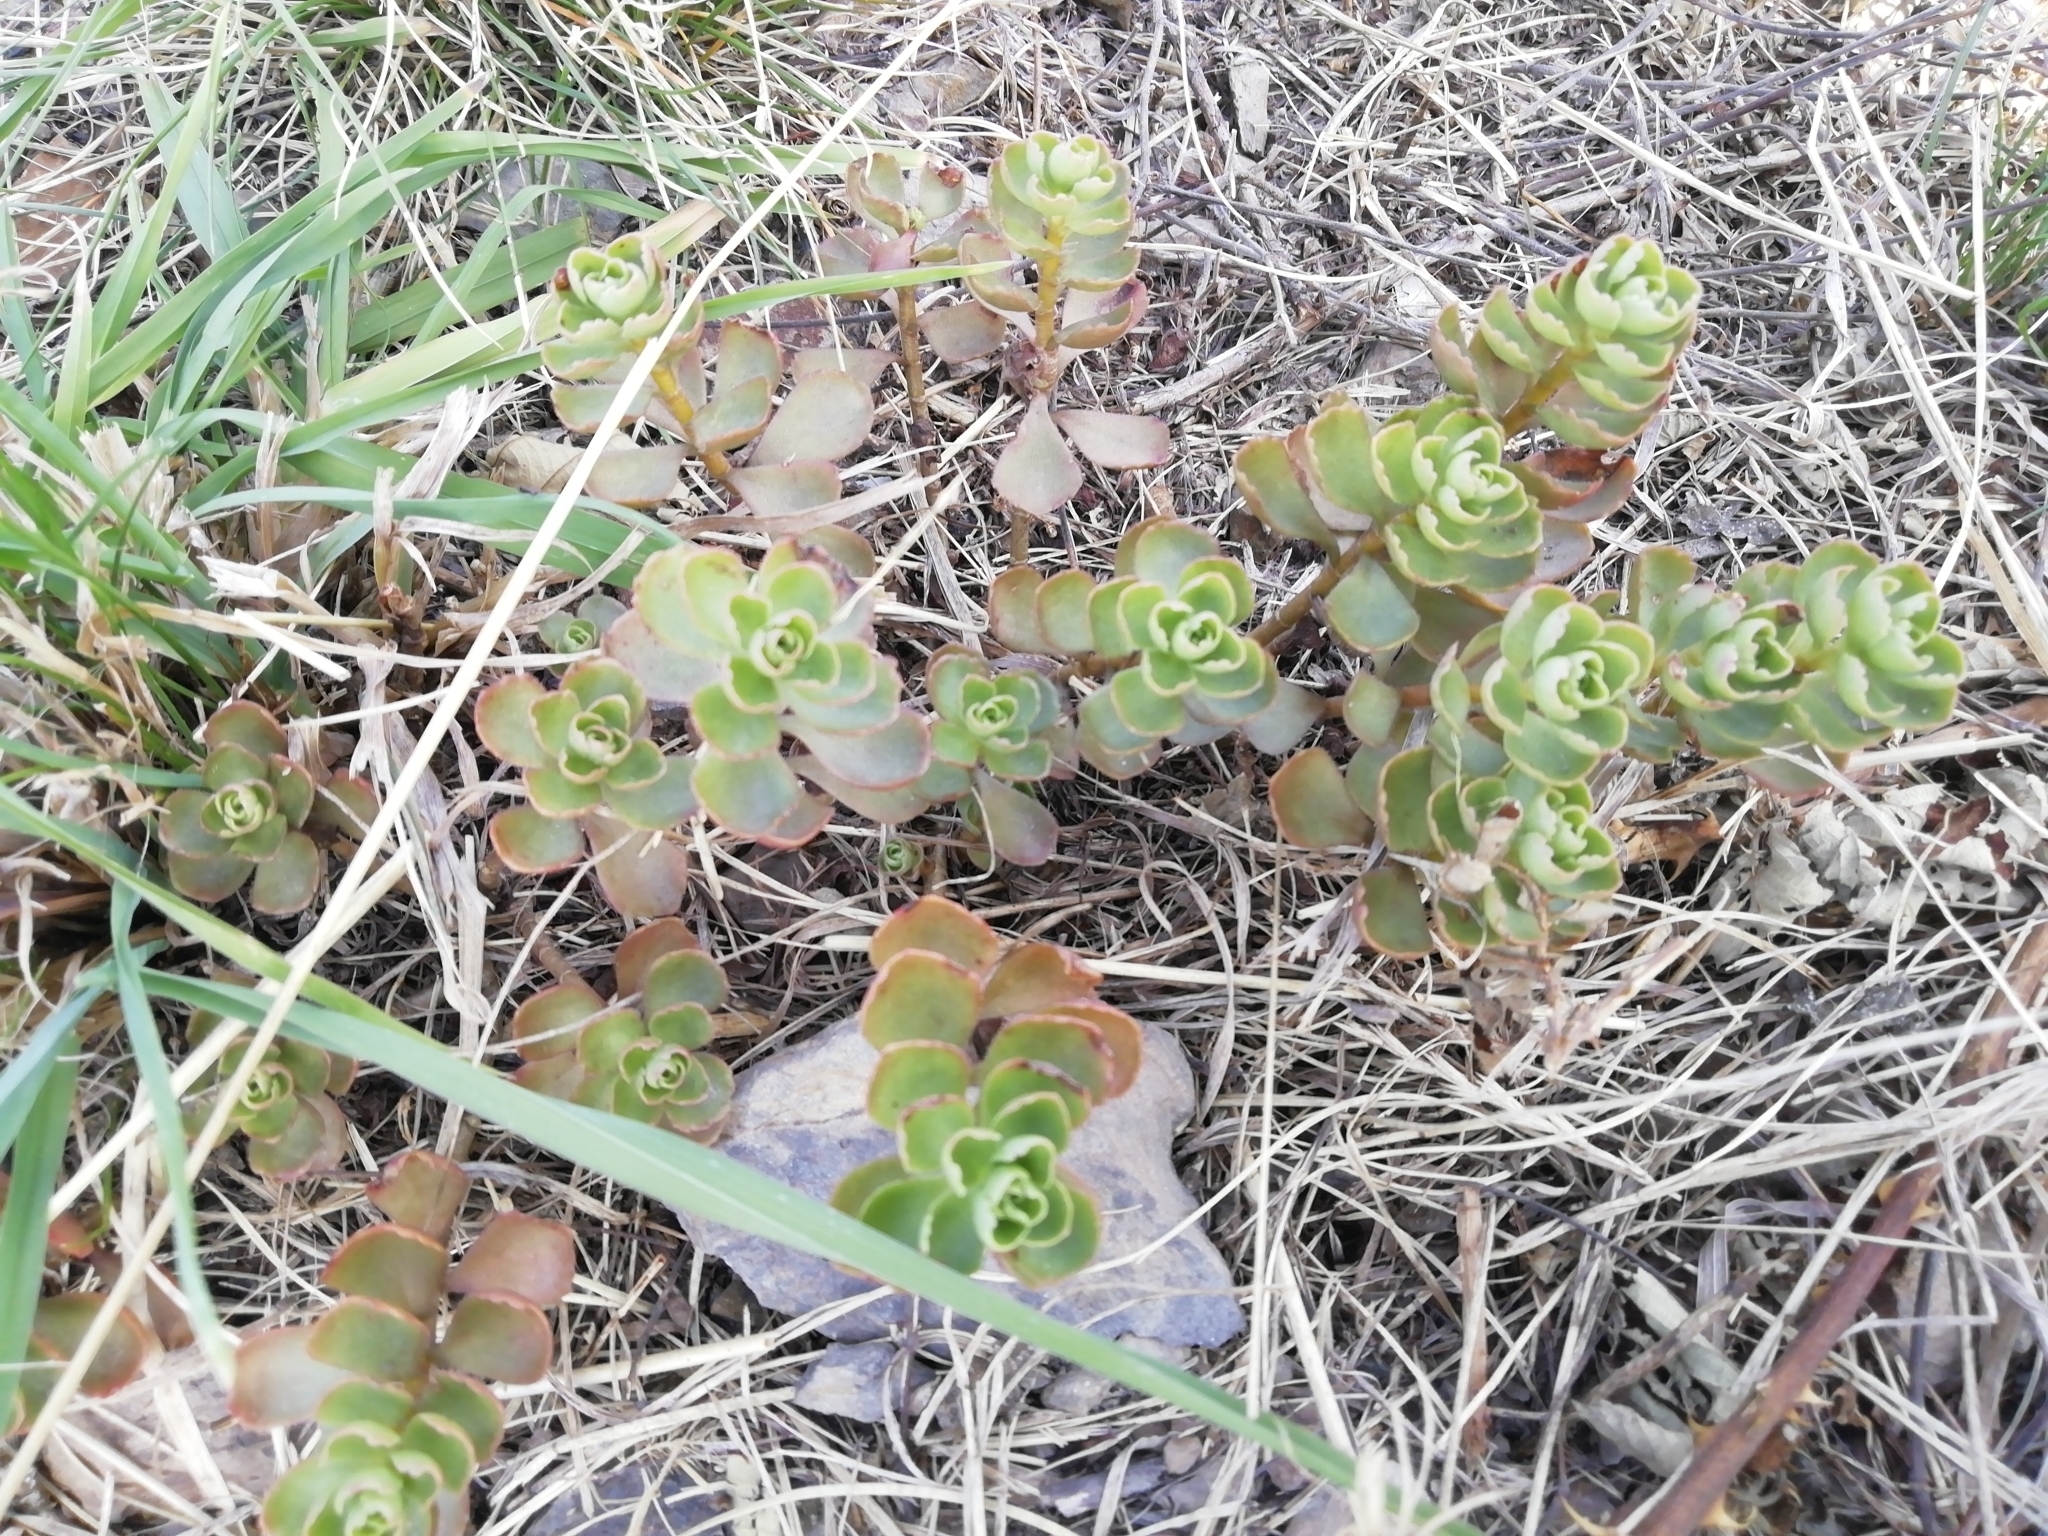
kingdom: Plantae
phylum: Tracheophyta
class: Magnoliopsida
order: Saxifragales
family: Crassulaceae
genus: Phedimus
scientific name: Phedimus spurius
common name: Caucasian stonecrop
